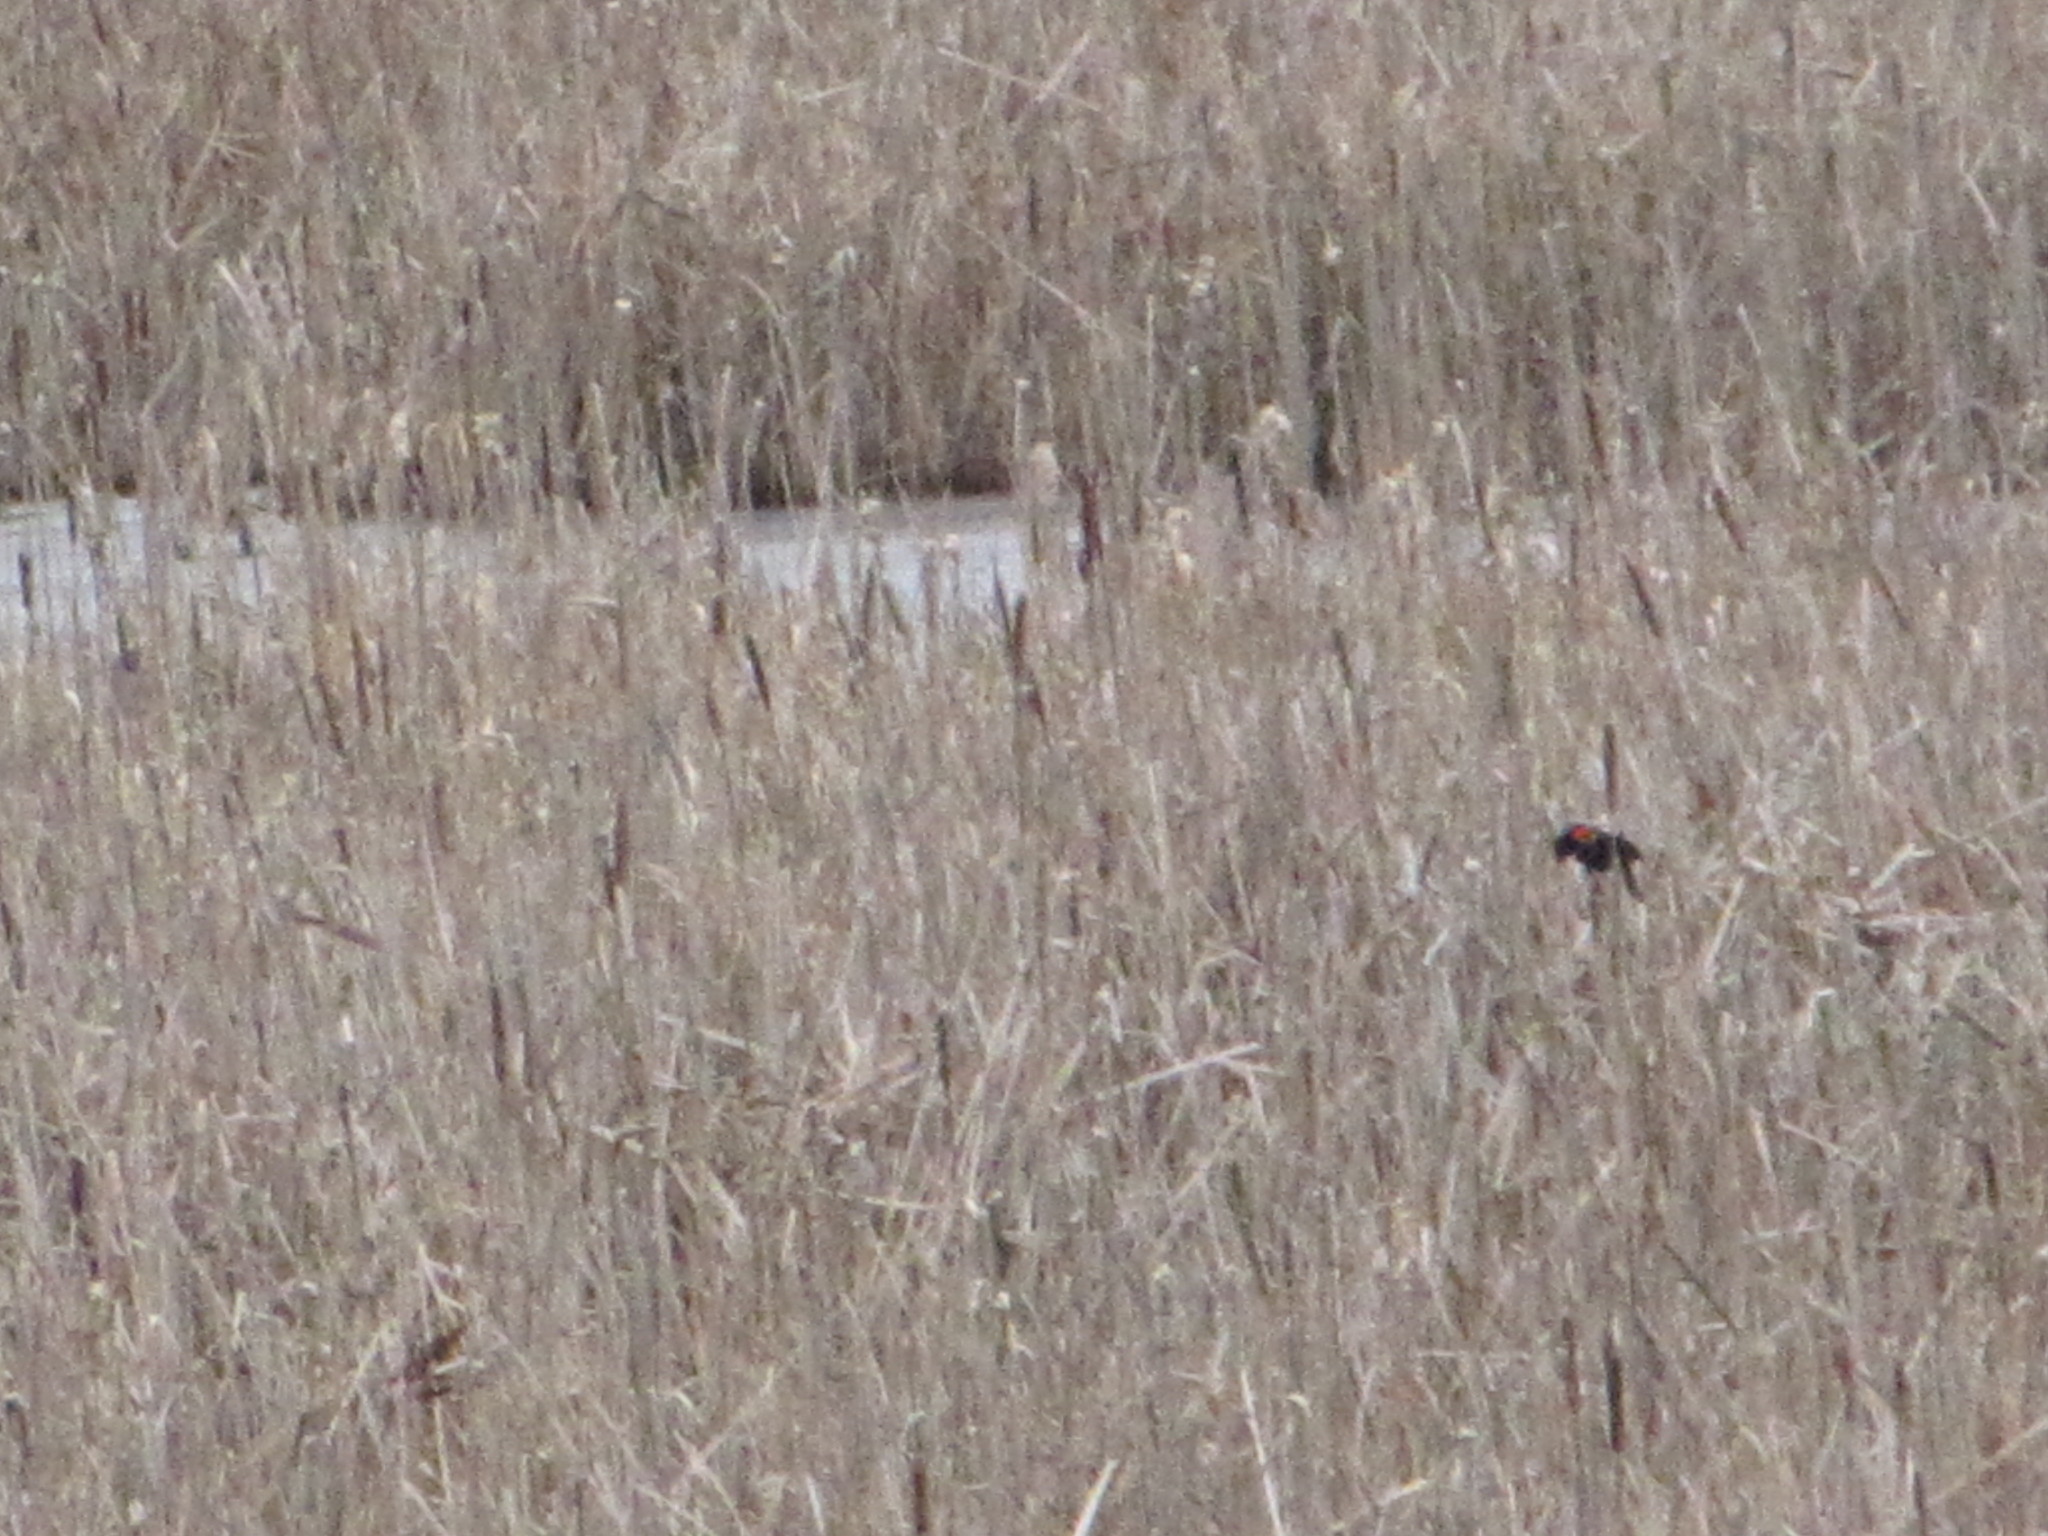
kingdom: Animalia
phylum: Chordata
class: Aves
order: Passeriformes
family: Icteridae
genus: Agelaius
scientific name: Agelaius phoeniceus
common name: Red-winged blackbird
